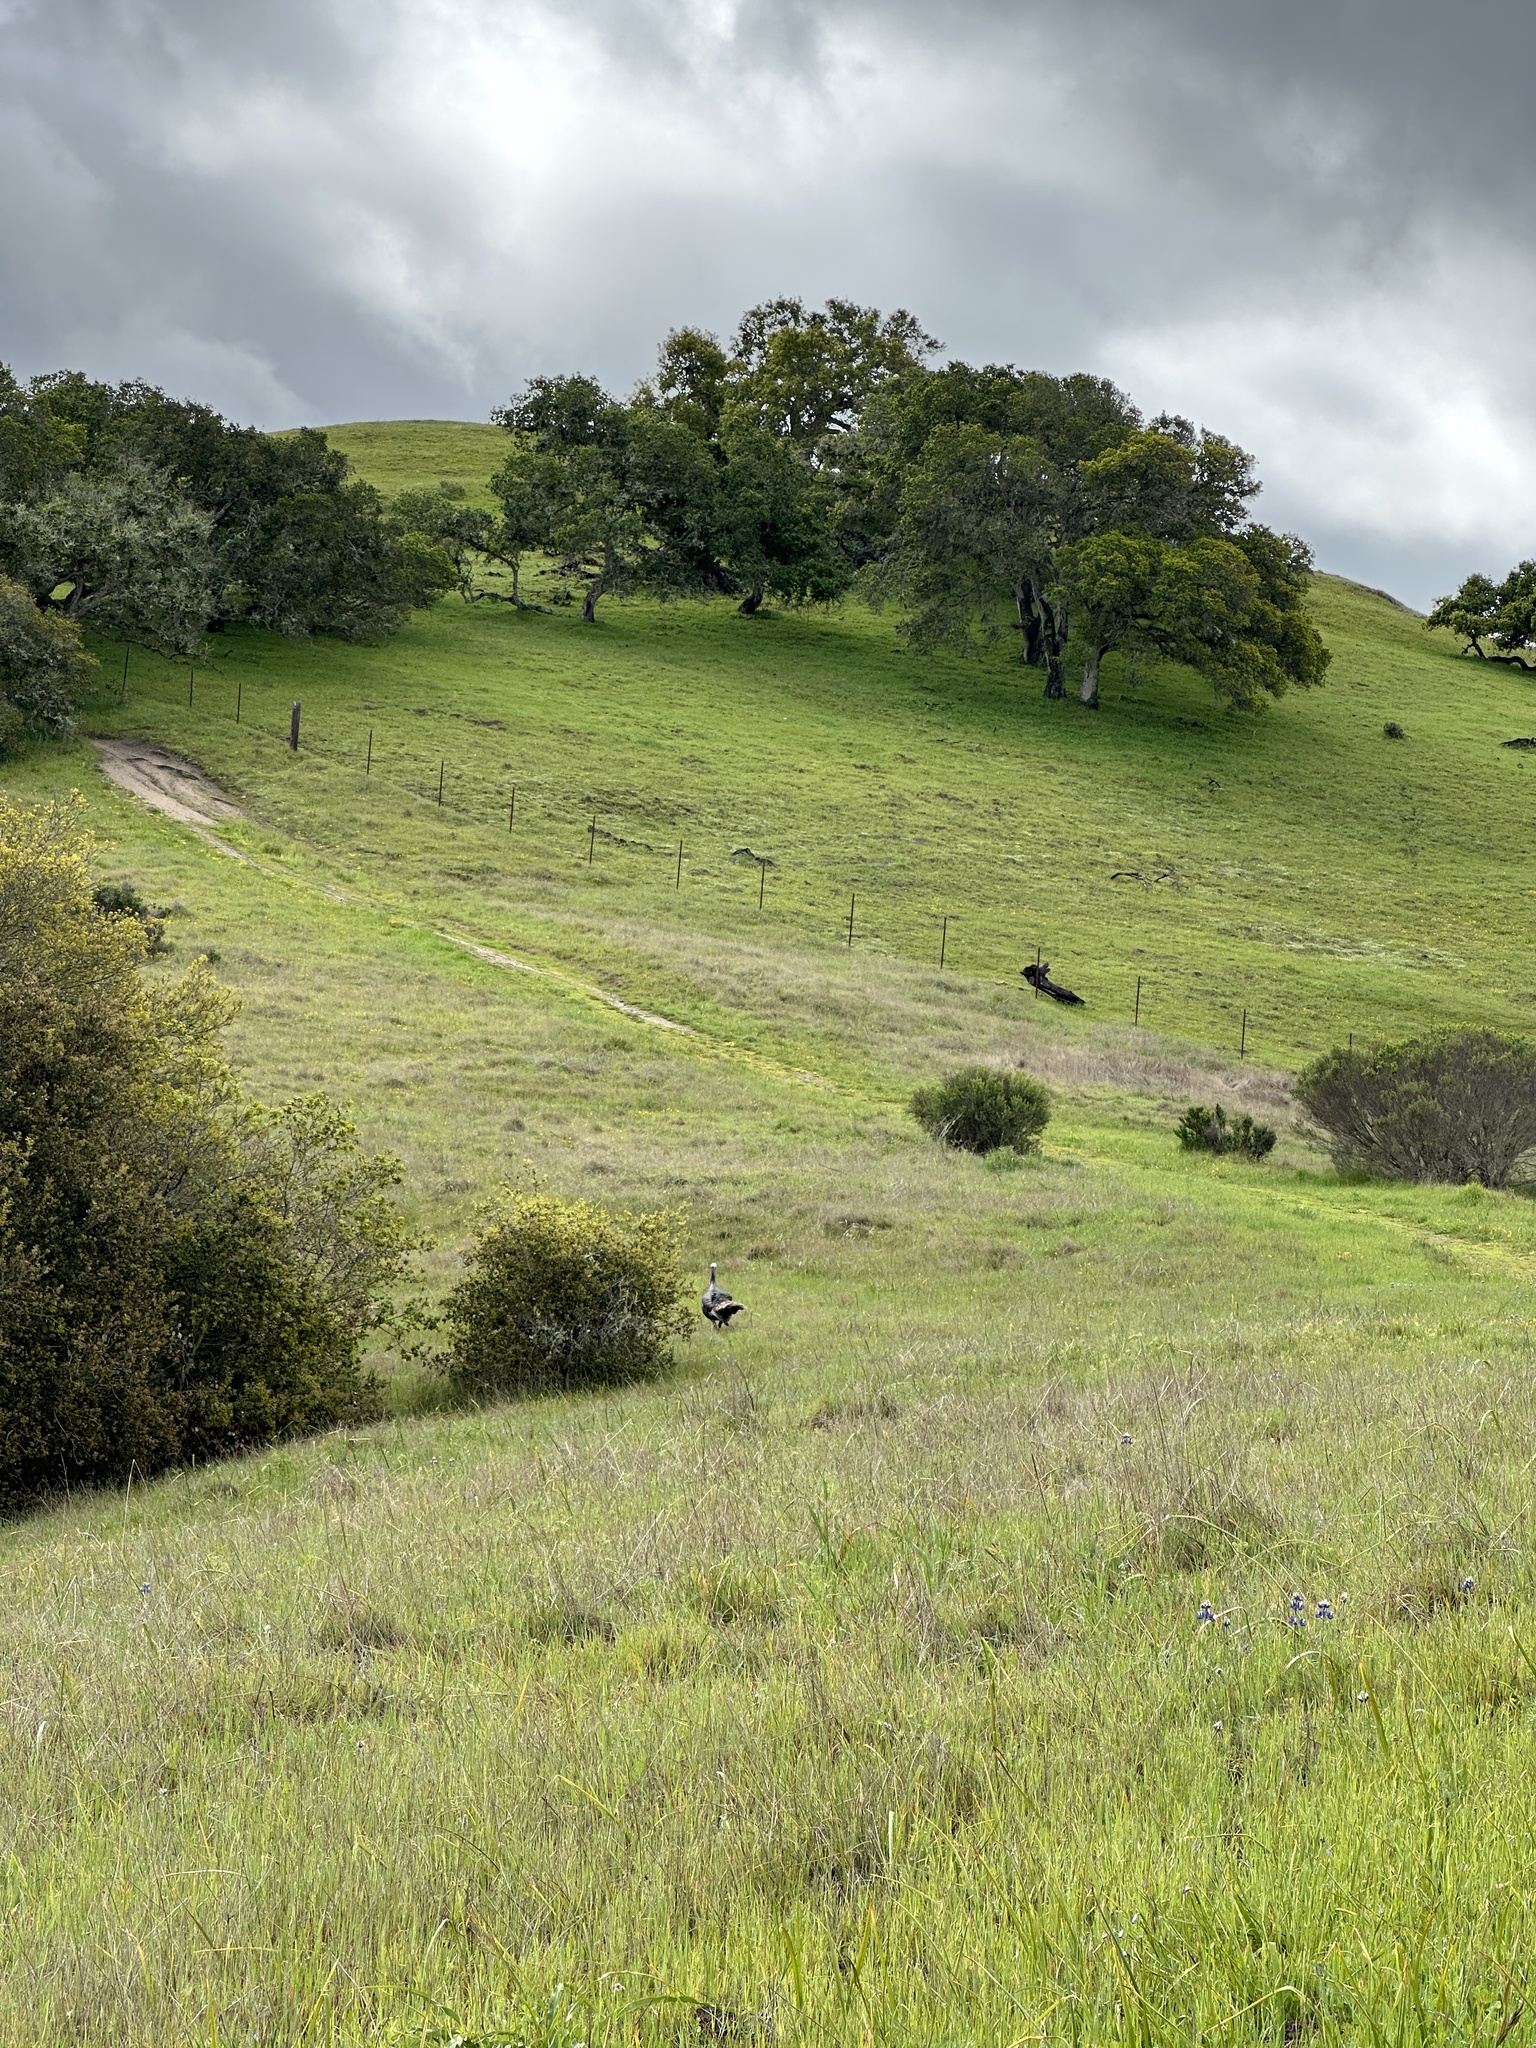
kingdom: Animalia
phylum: Chordata
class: Aves
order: Galliformes
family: Phasianidae
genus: Meleagris
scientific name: Meleagris gallopavo
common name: Wild turkey
